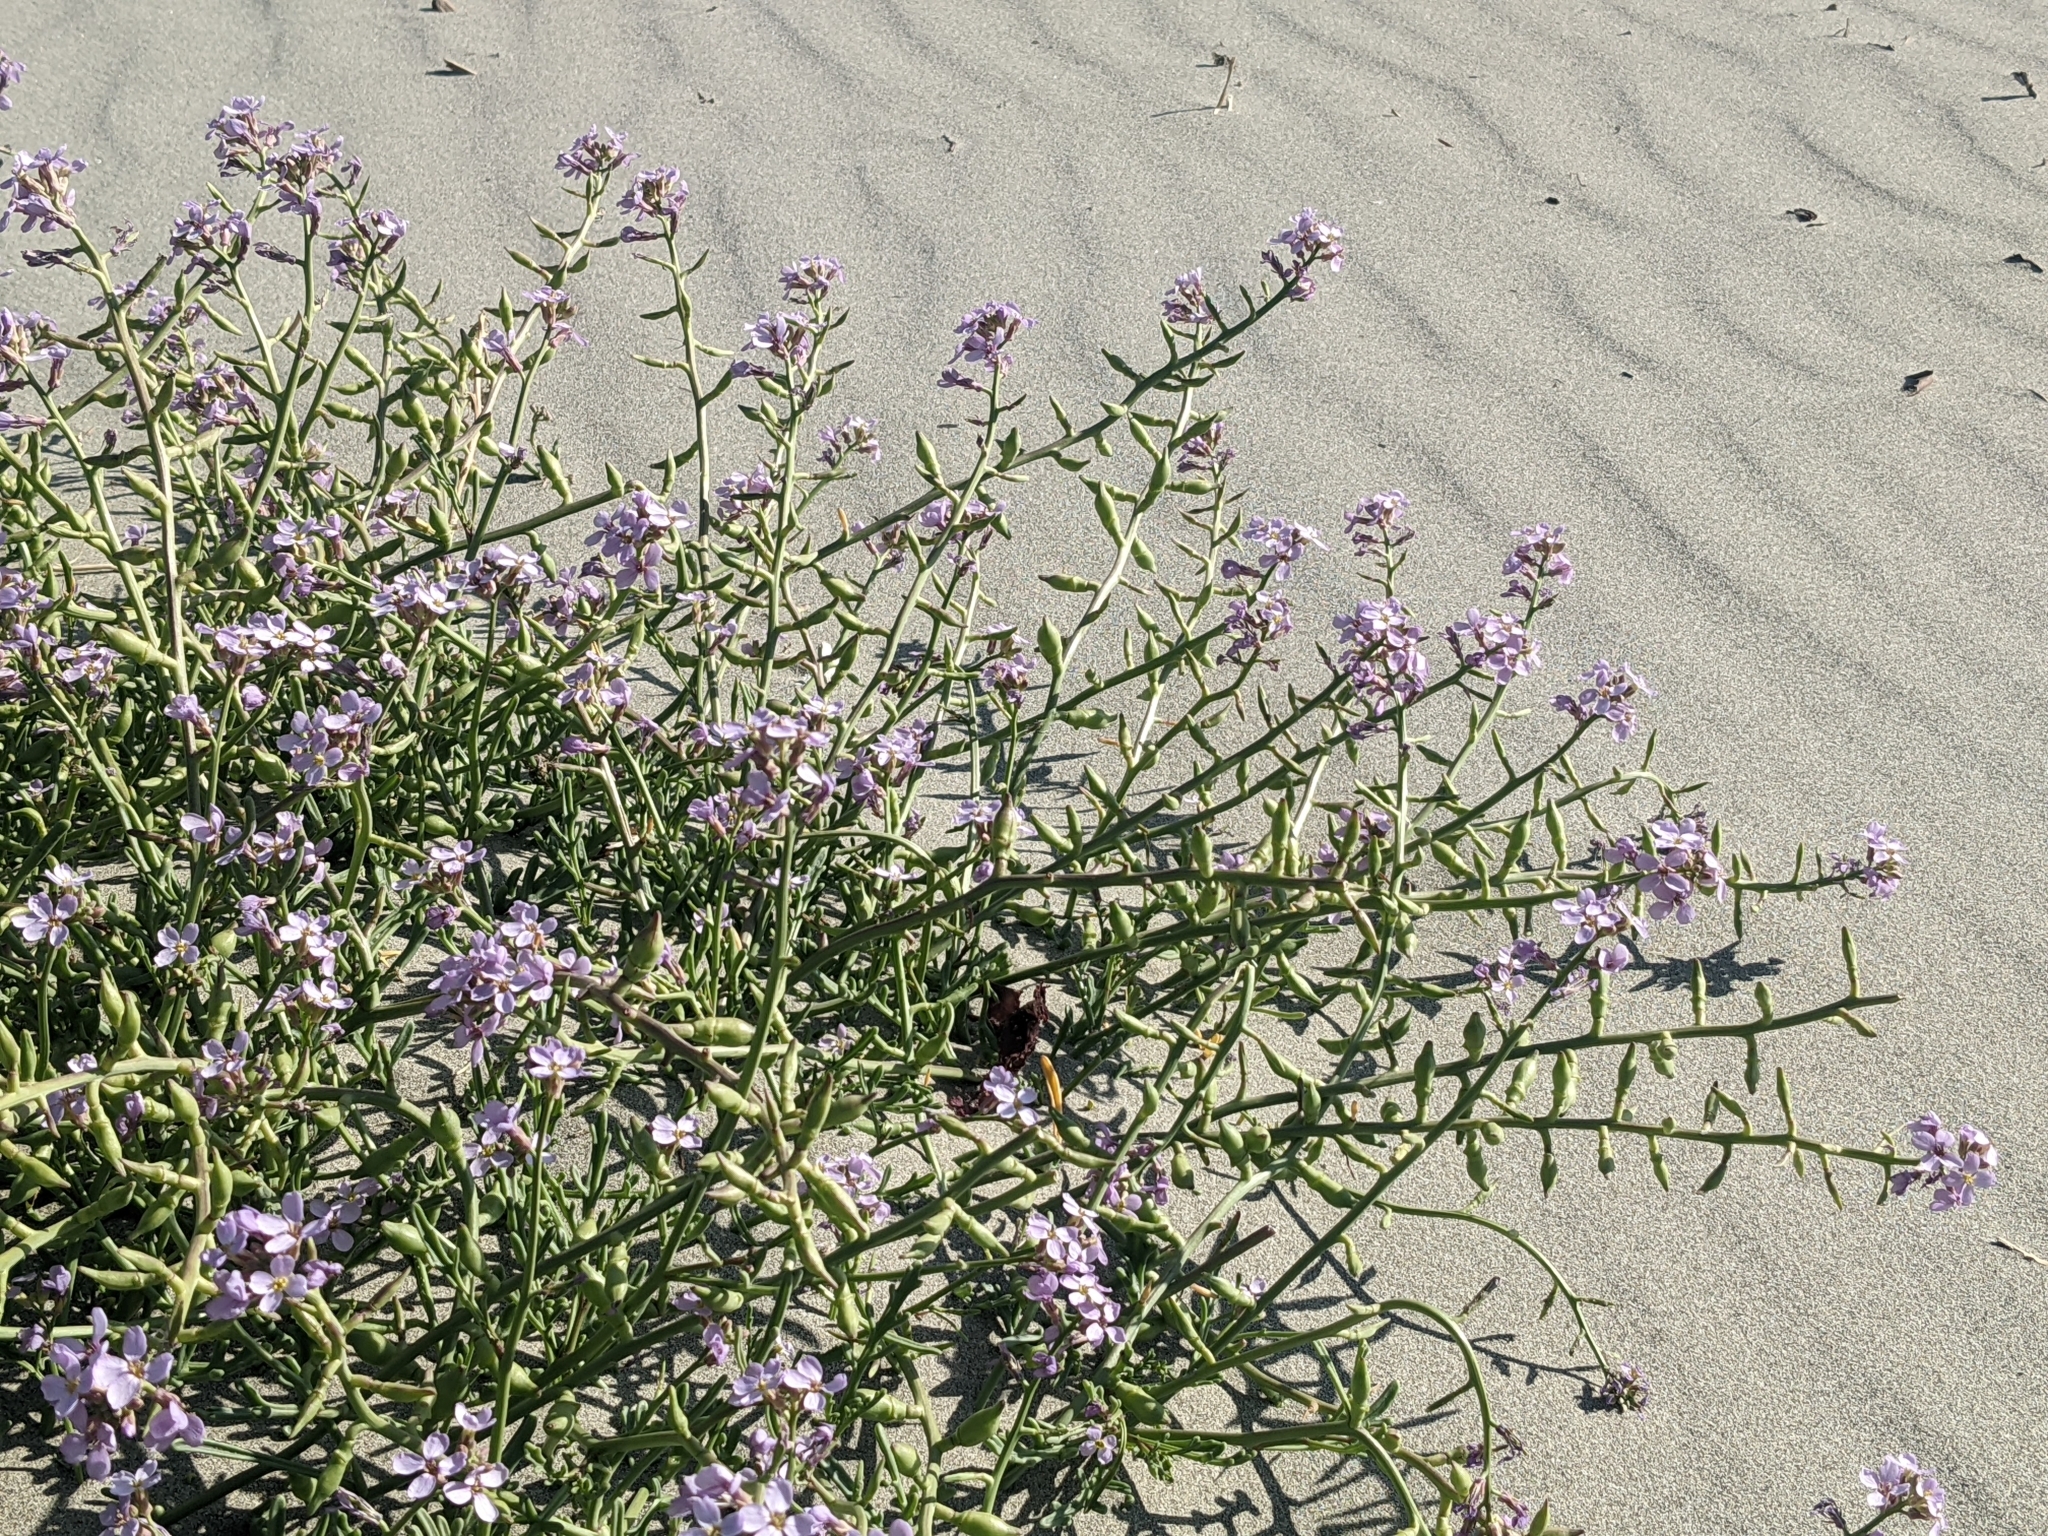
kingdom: Plantae
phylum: Tracheophyta
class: Magnoliopsida
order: Brassicales
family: Brassicaceae
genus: Cakile
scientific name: Cakile maritima
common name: Sea rocket
